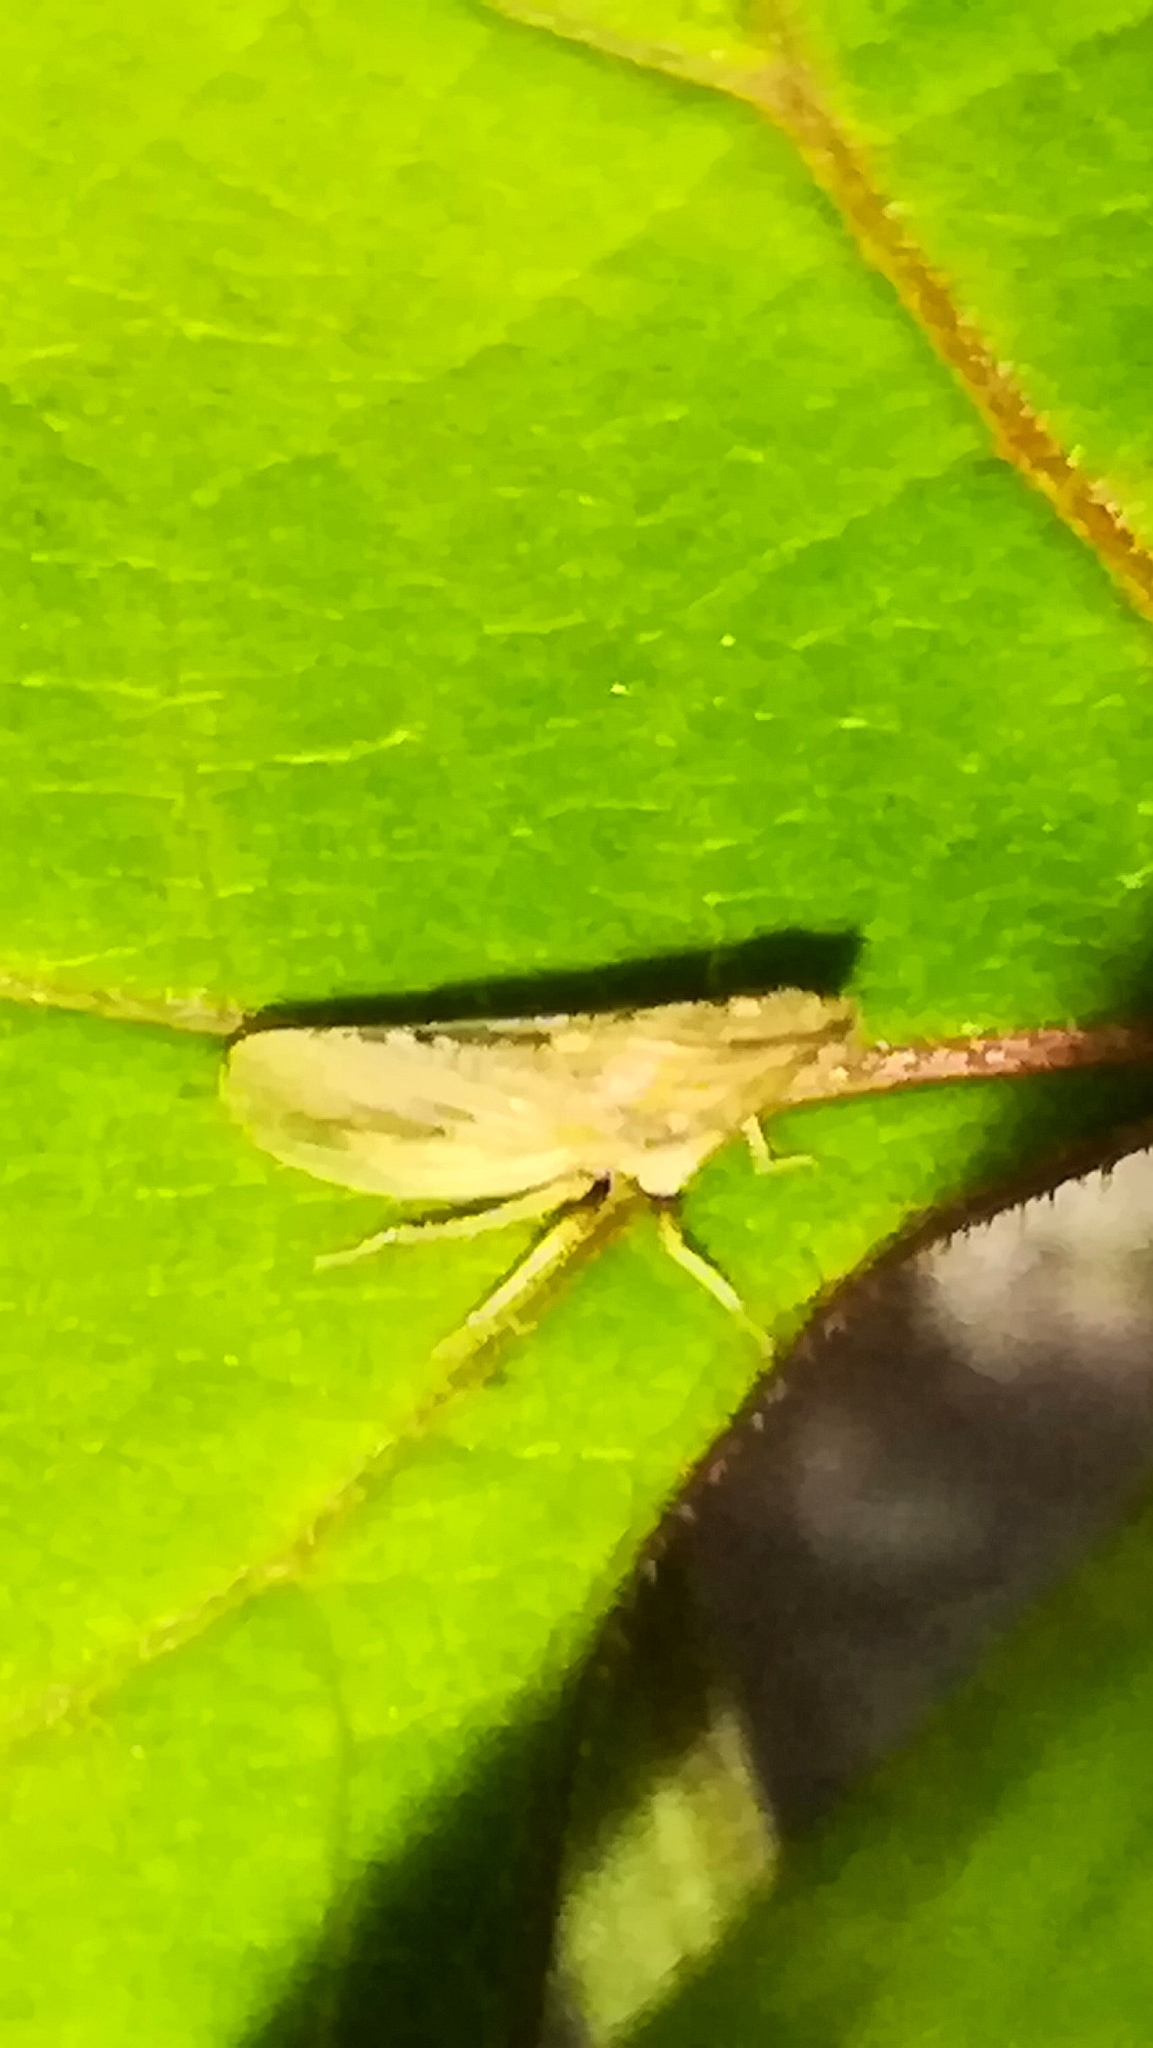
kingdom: Animalia
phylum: Arthropoda
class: Insecta
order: Hemiptera
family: Cicadellidae
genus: Eupelix
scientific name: Eupelix cuspidata
